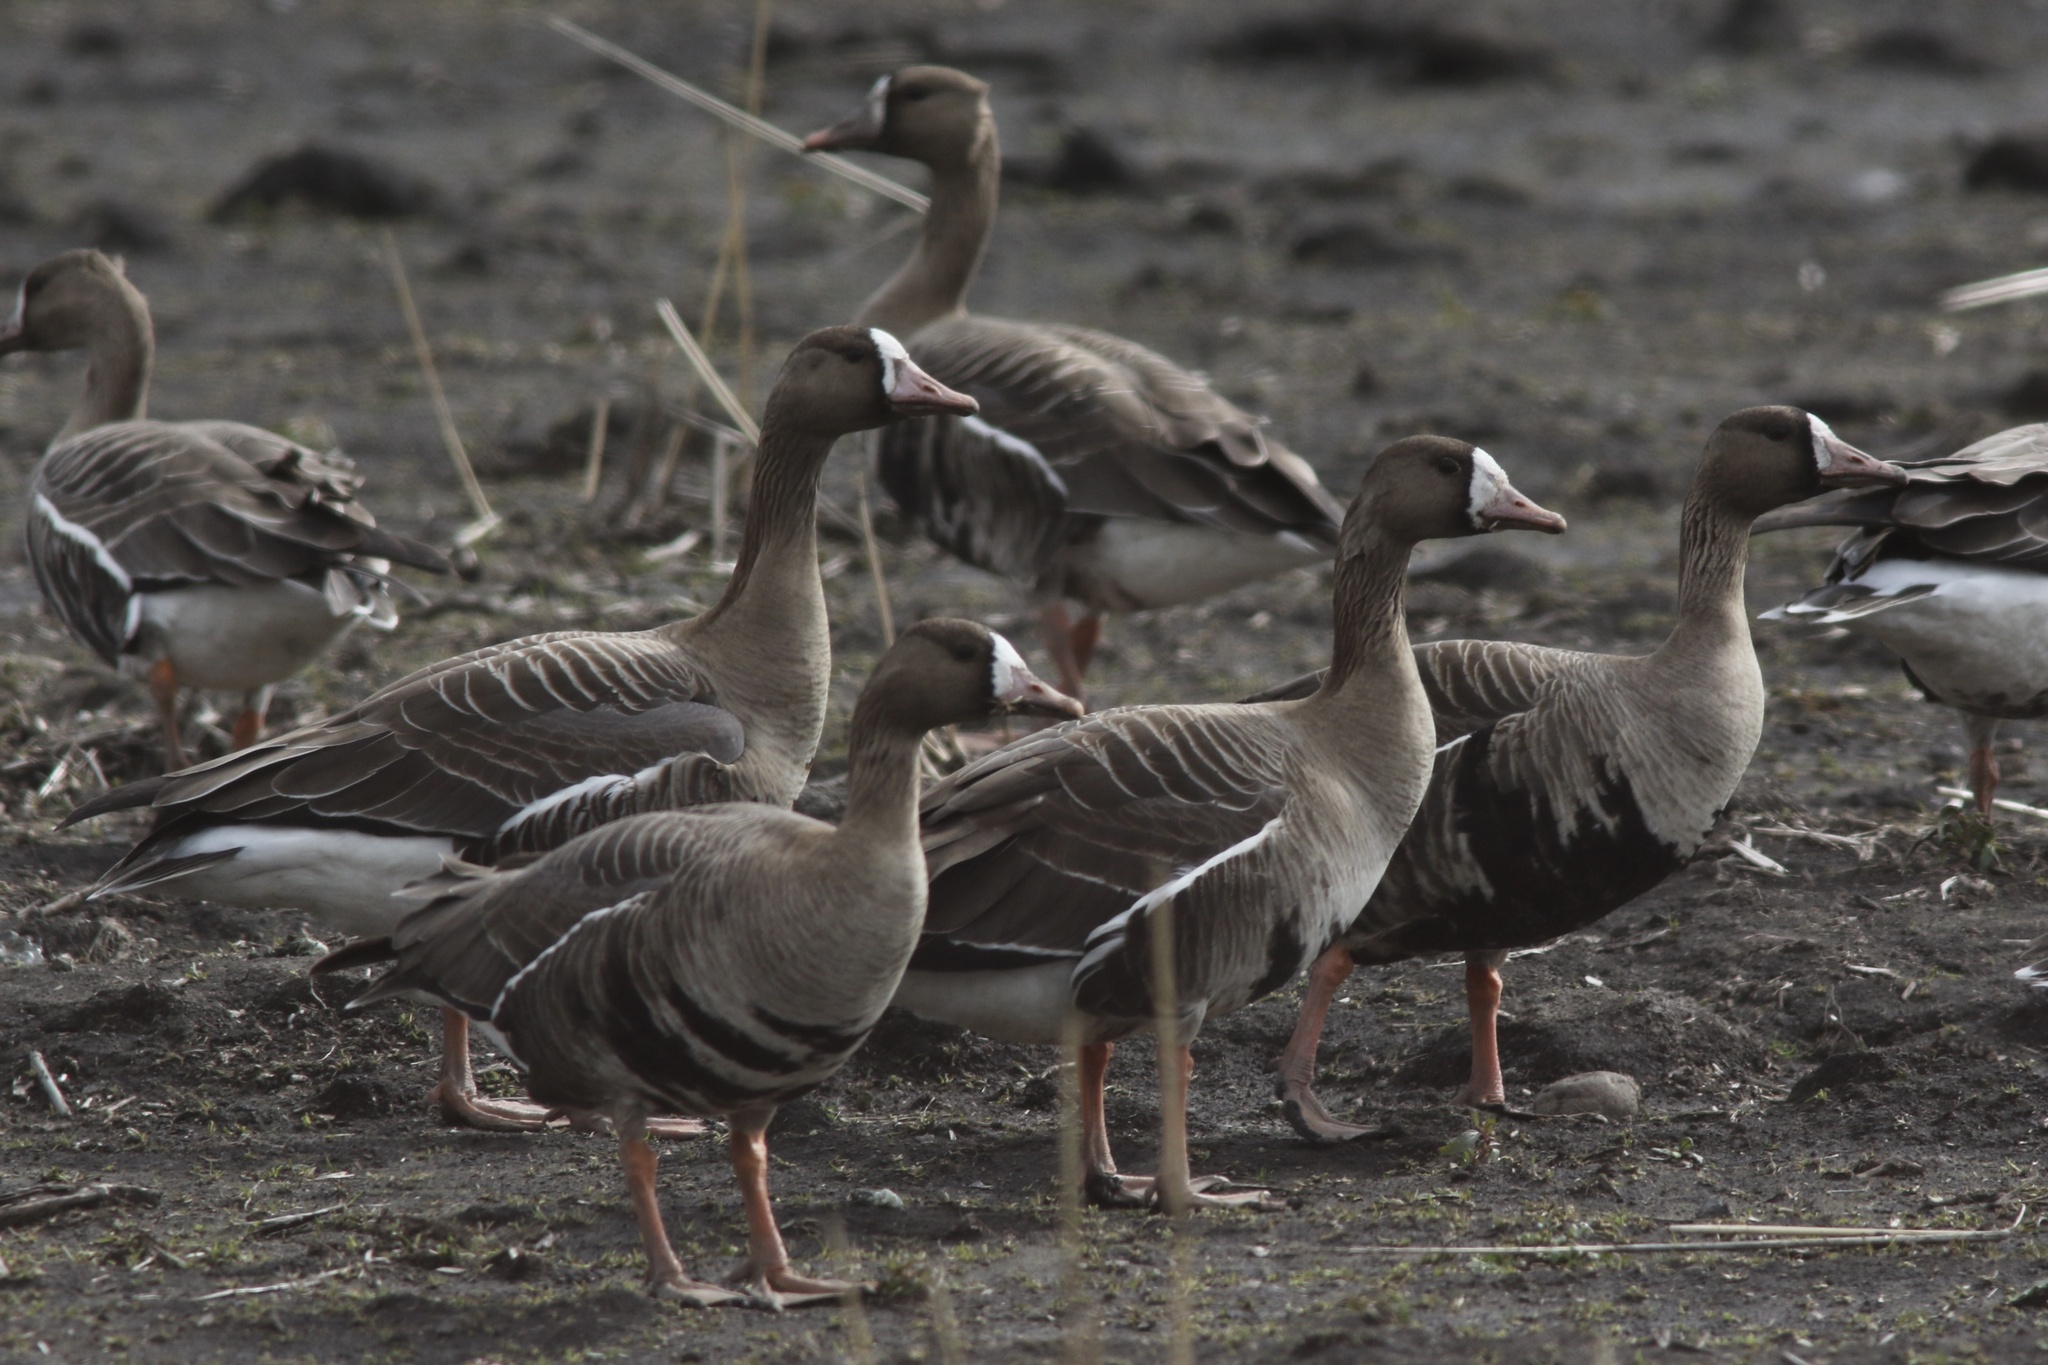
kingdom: Animalia
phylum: Chordata
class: Aves
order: Anseriformes
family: Anatidae
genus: Anser
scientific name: Anser albifrons
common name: Greater white-fronted goose
